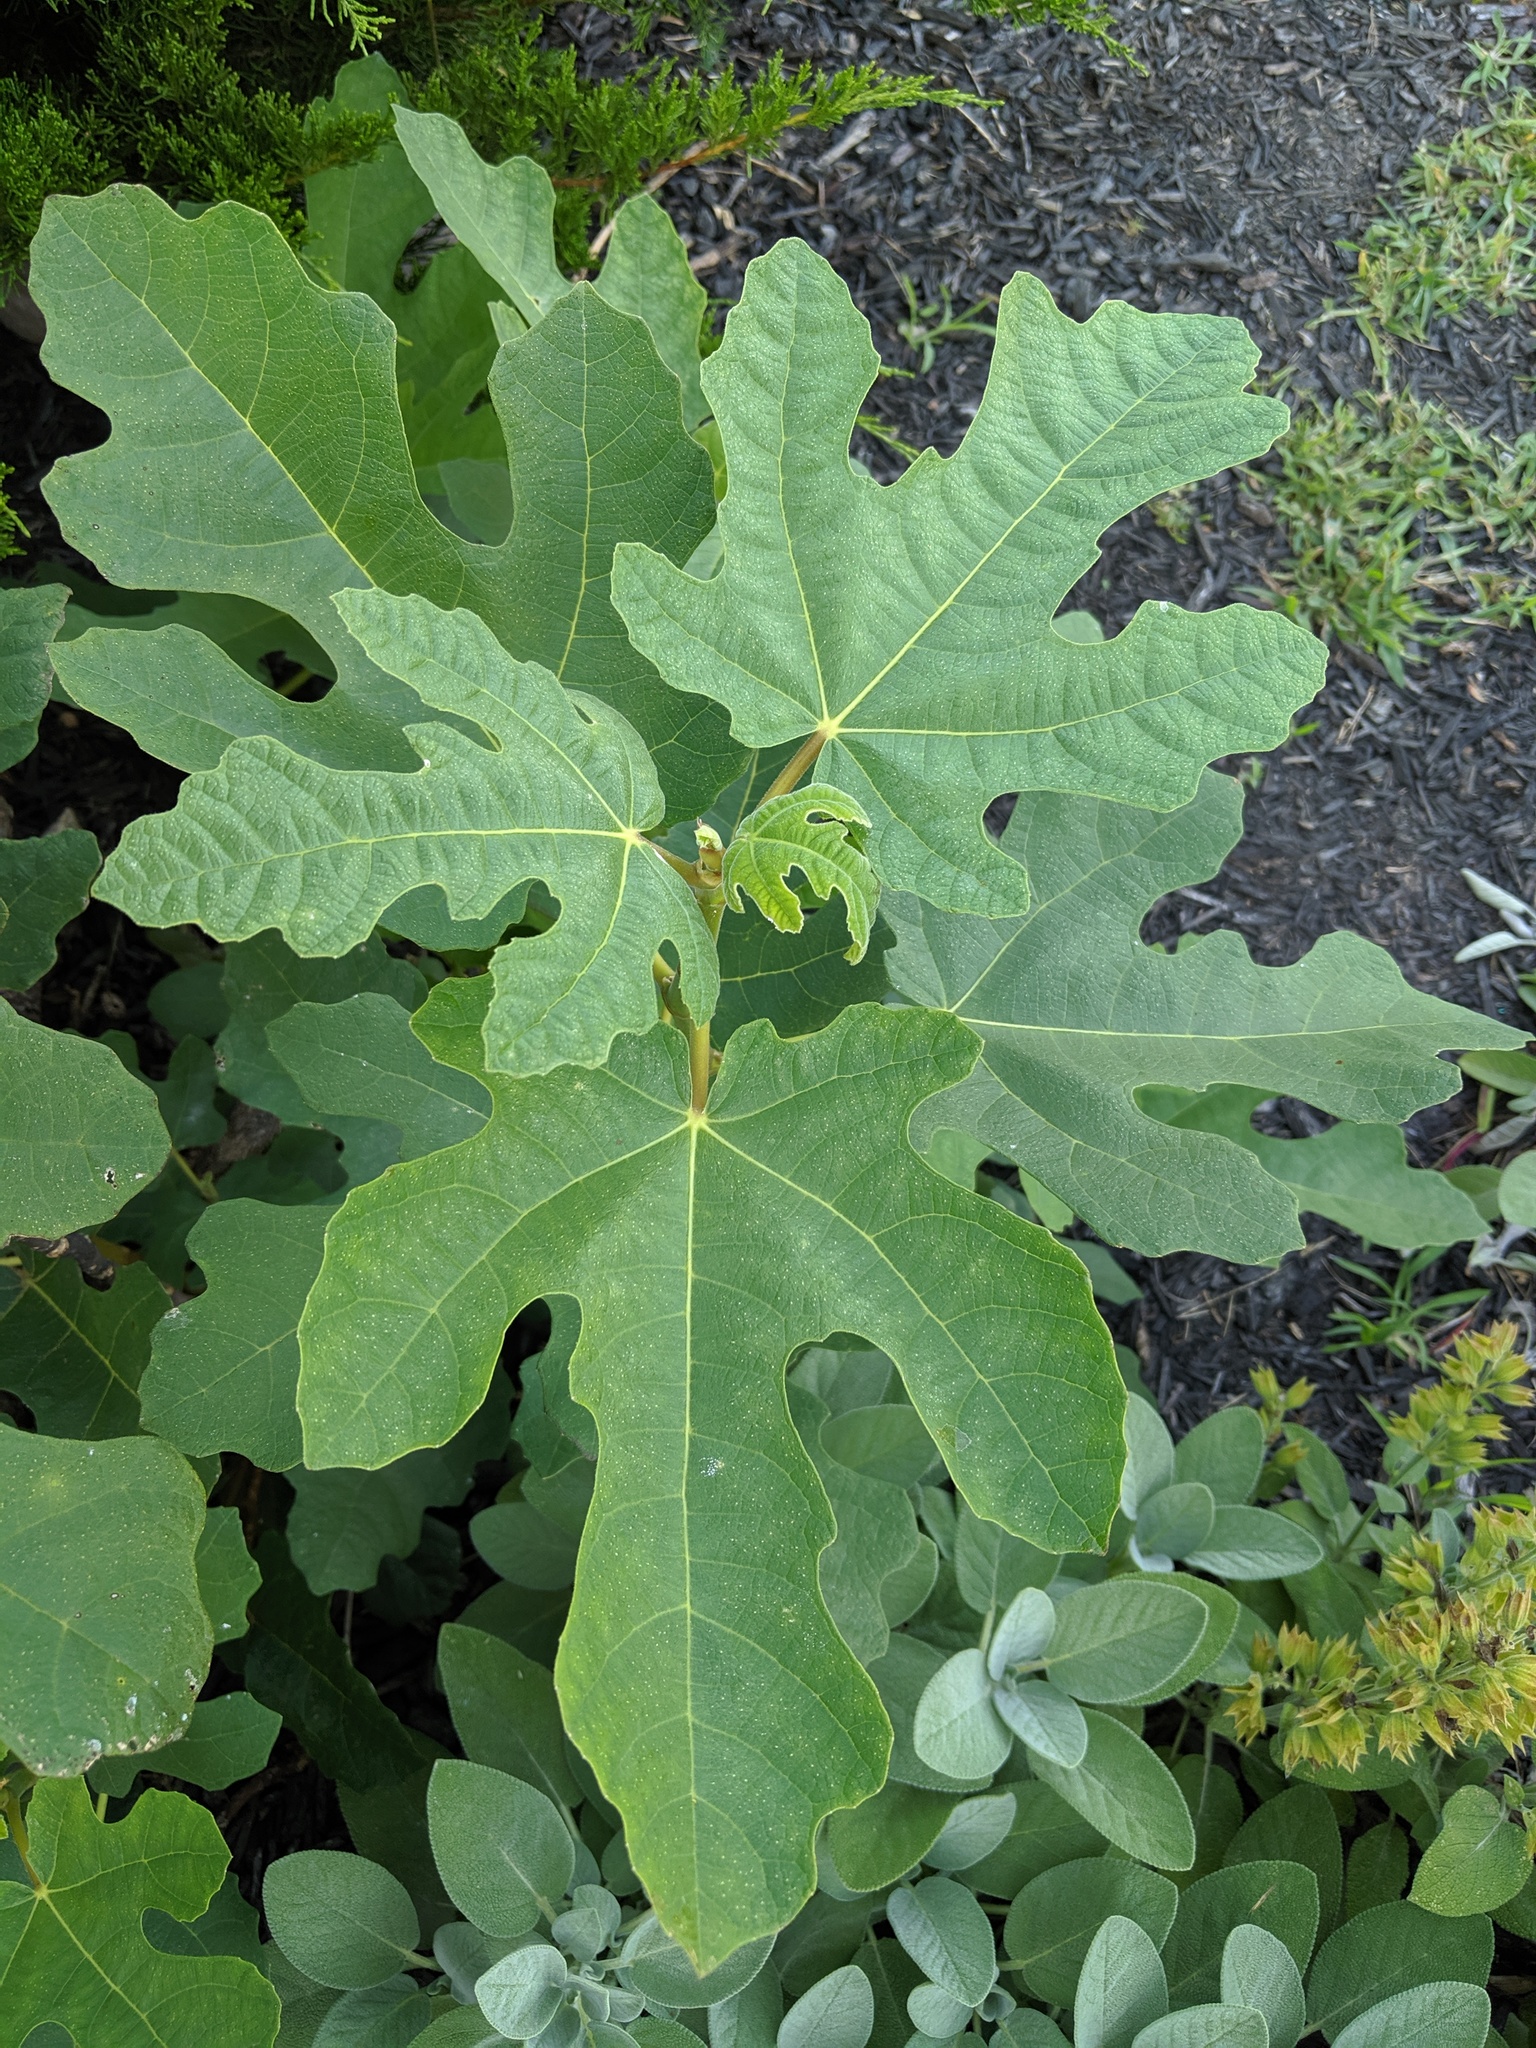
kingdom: Plantae
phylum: Tracheophyta
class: Magnoliopsida
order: Rosales
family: Moraceae
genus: Ficus
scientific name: Ficus carica
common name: Fig
